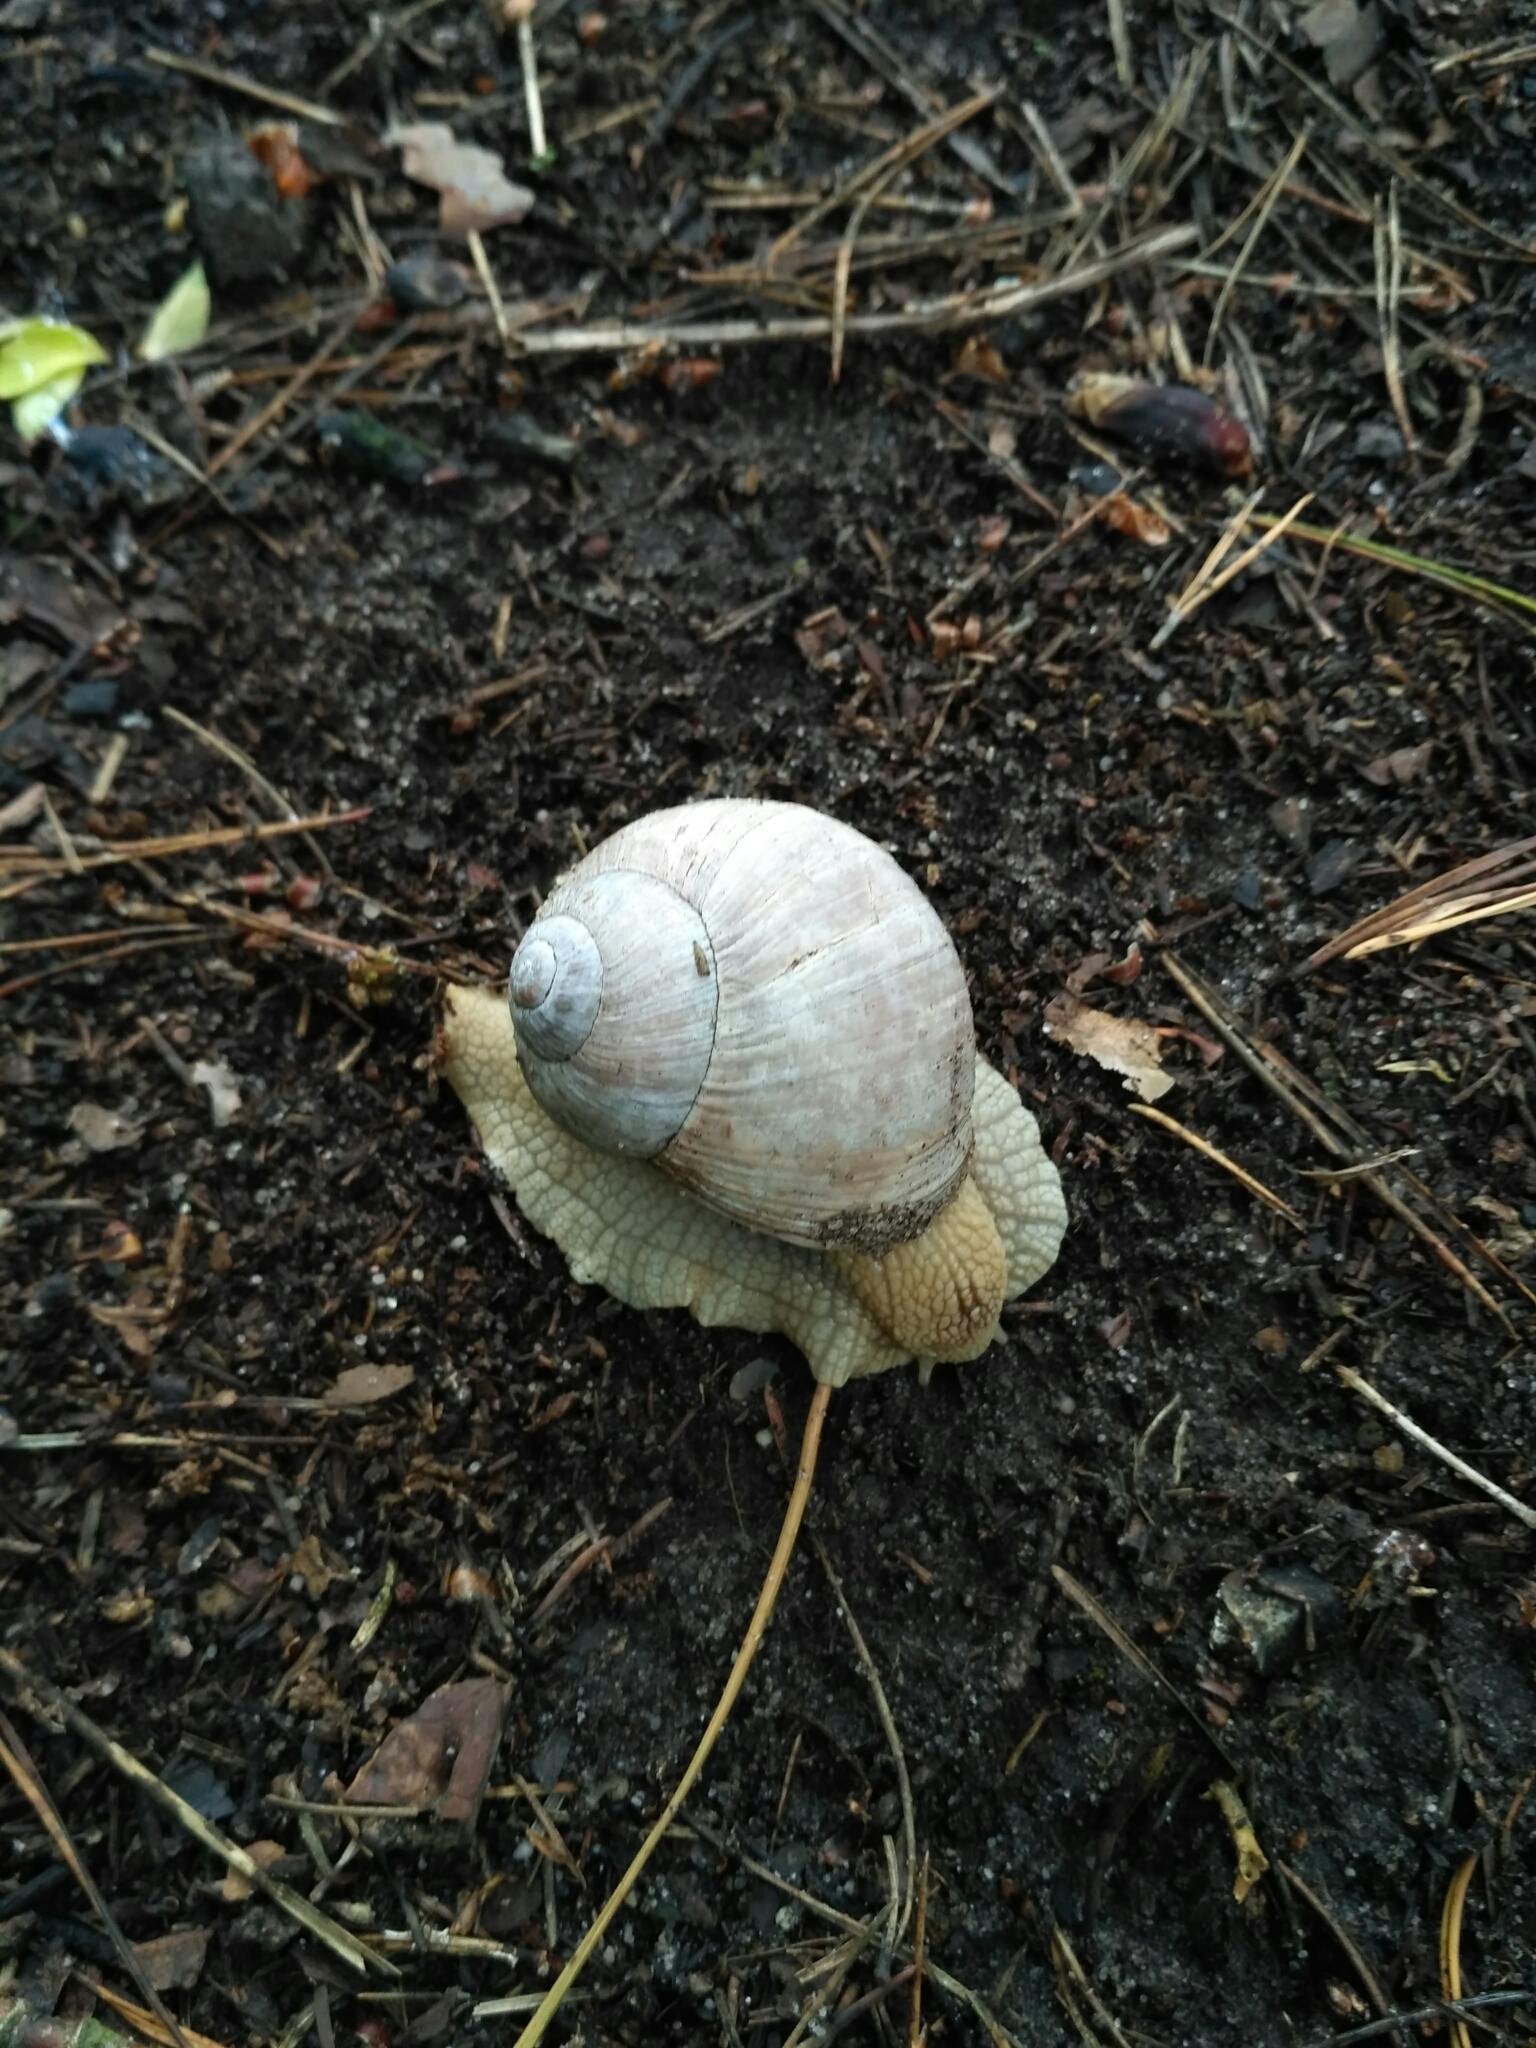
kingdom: Animalia
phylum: Mollusca
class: Gastropoda
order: Stylommatophora
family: Helicidae
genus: Helix
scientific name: Helix pomatia
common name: Roman snail
